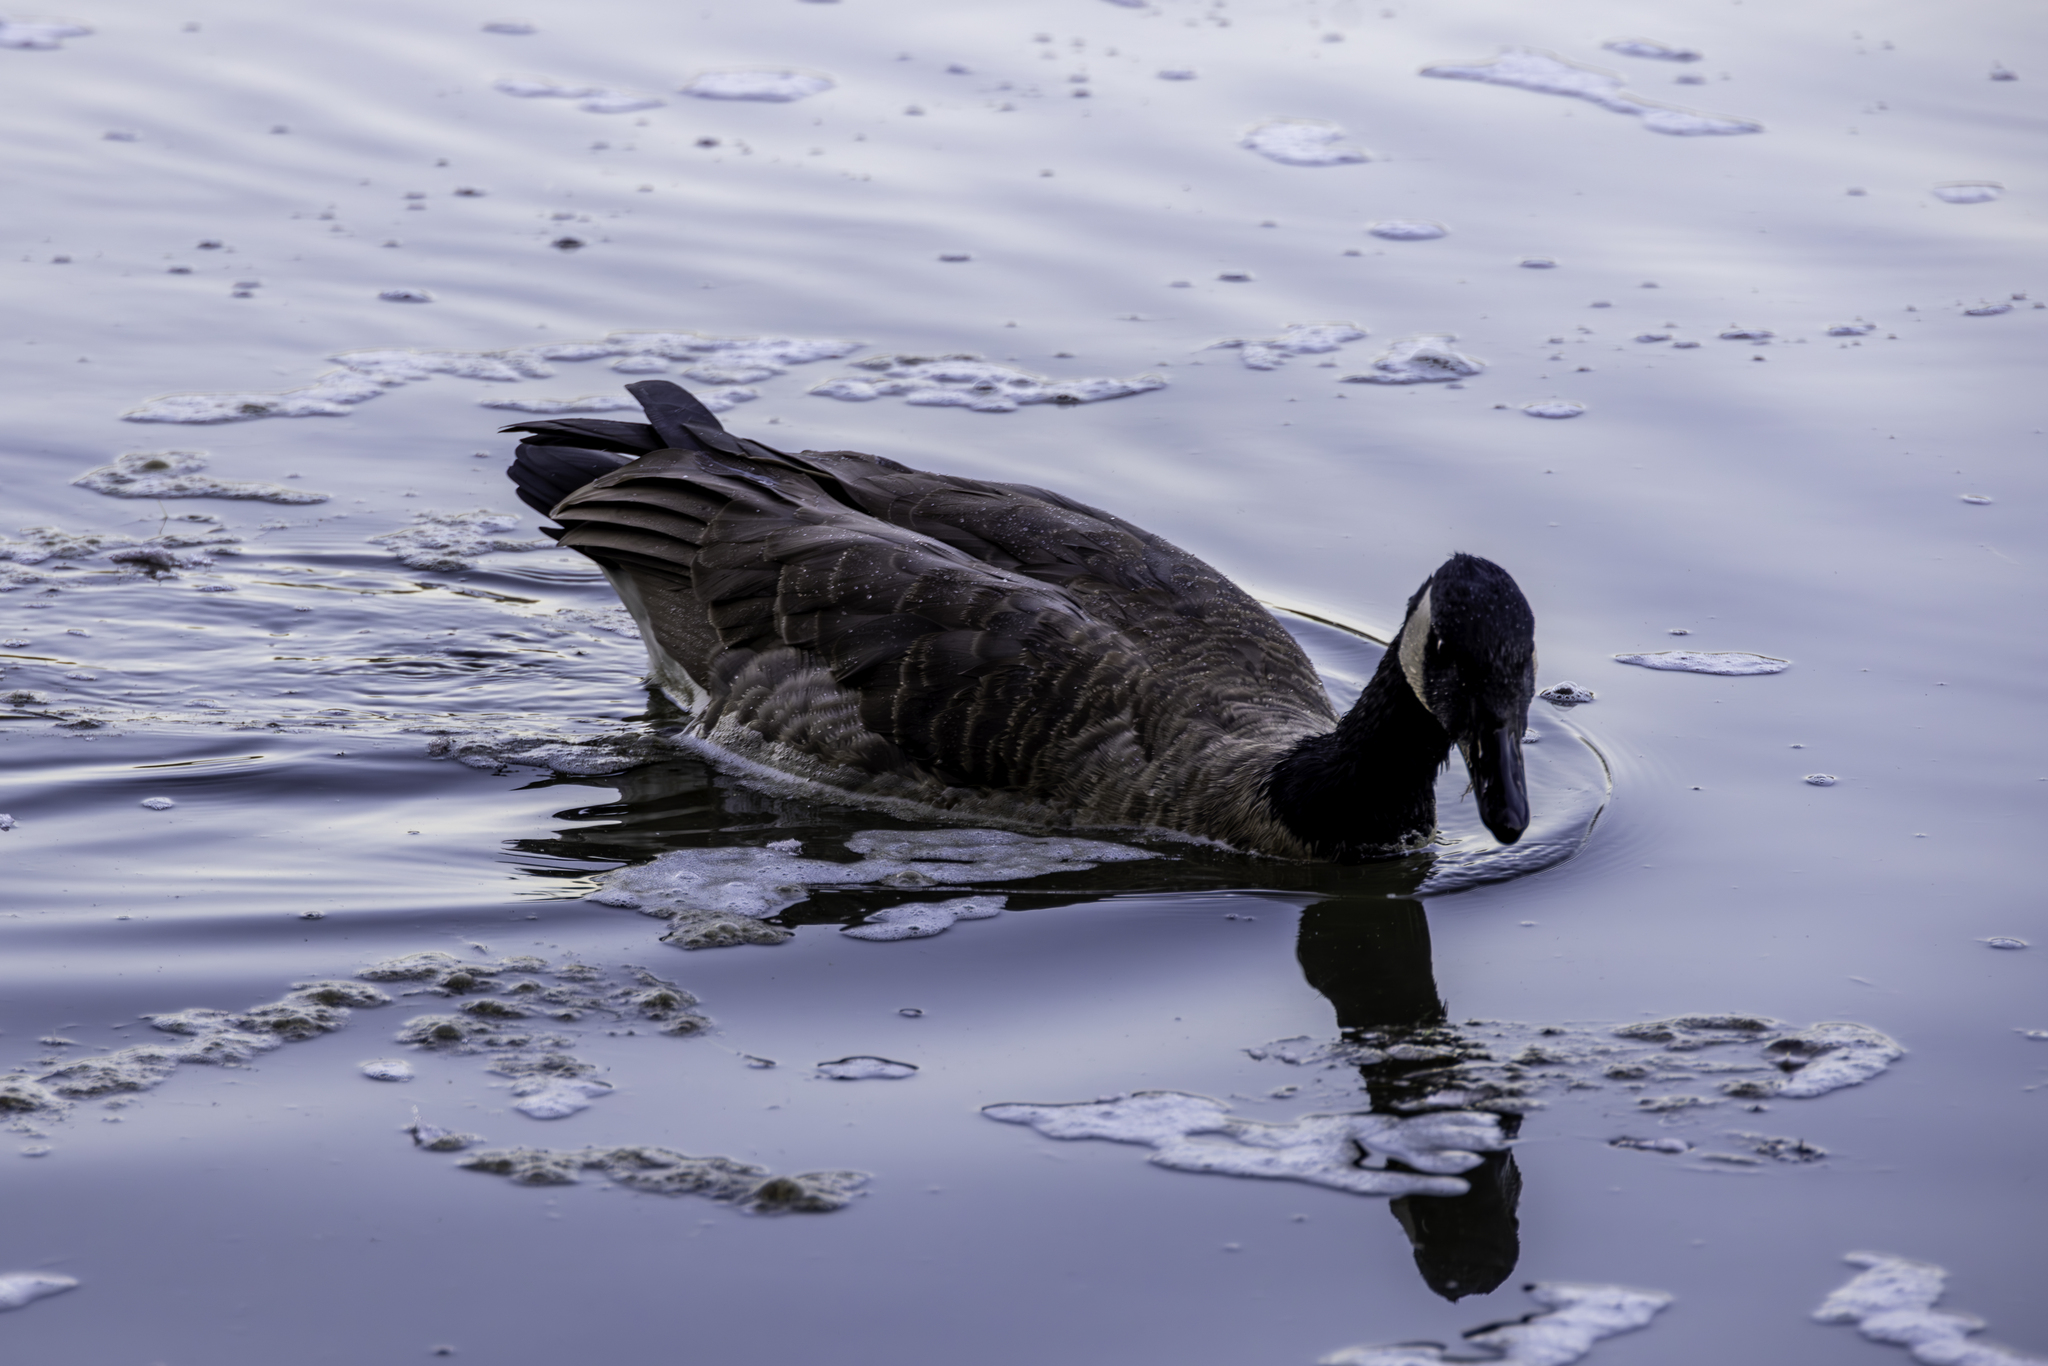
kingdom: Animalia
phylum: Chordata
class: Aves
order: Anseriformes
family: Anatidae
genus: Branta
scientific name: Branta canadensis
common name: Canada goose
